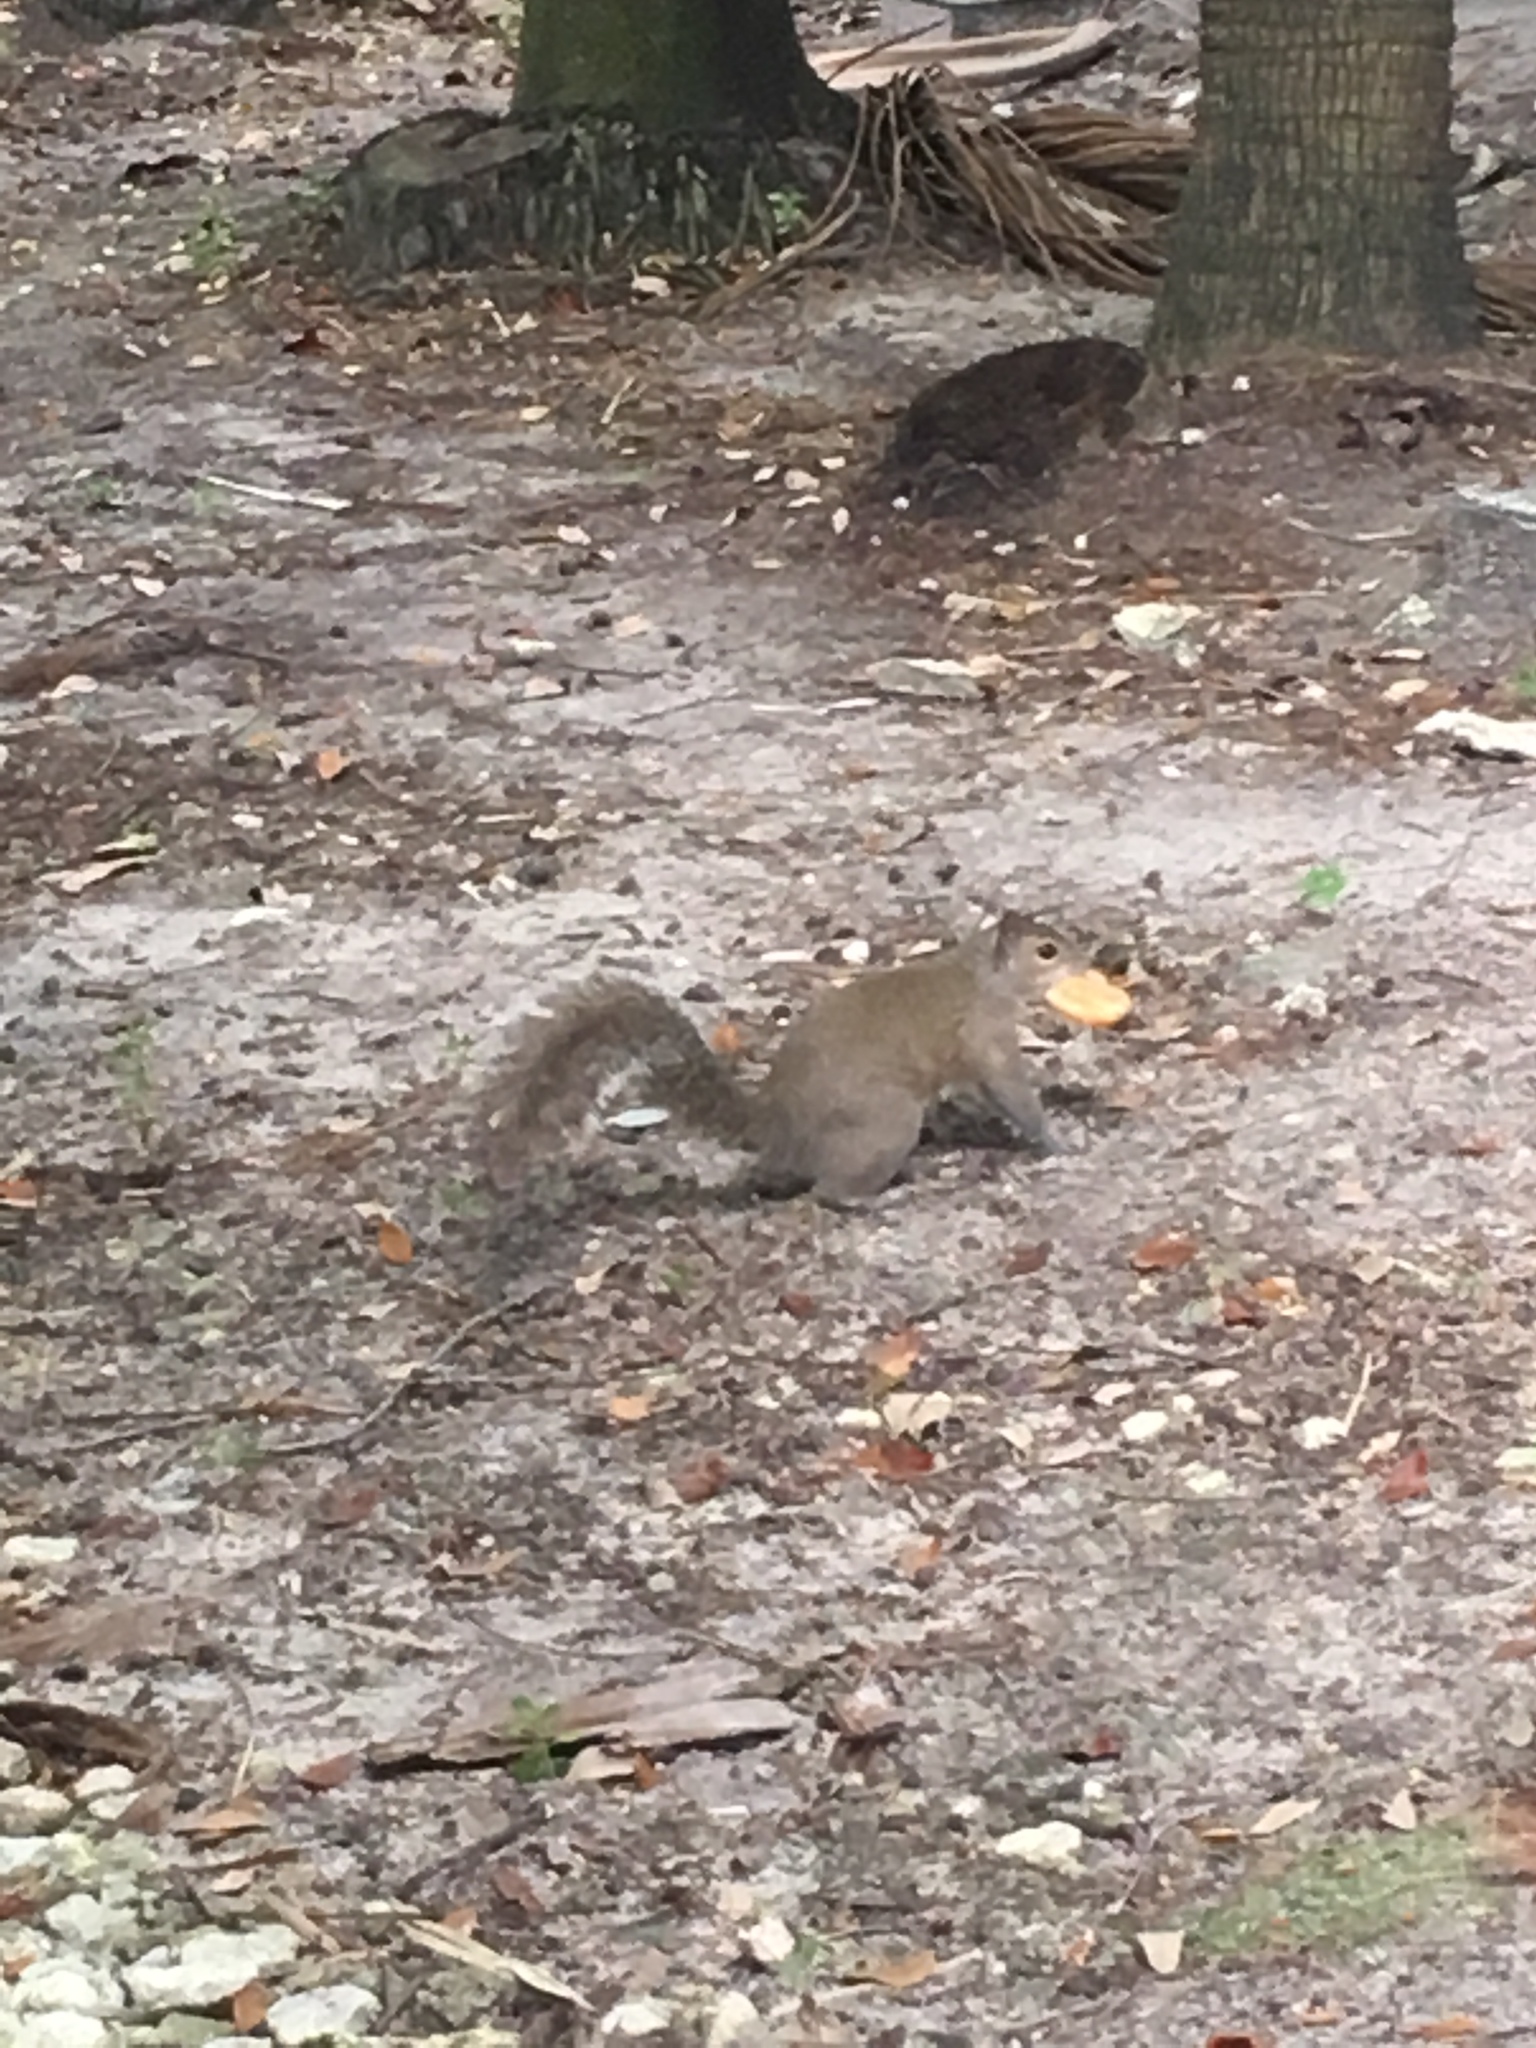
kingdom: Animalia
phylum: Chordata
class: Mammalia
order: Rodentia
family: Sciuridae
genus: Sciurus
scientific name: Sciurus carolinensis
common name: Eastern gray squirrel
